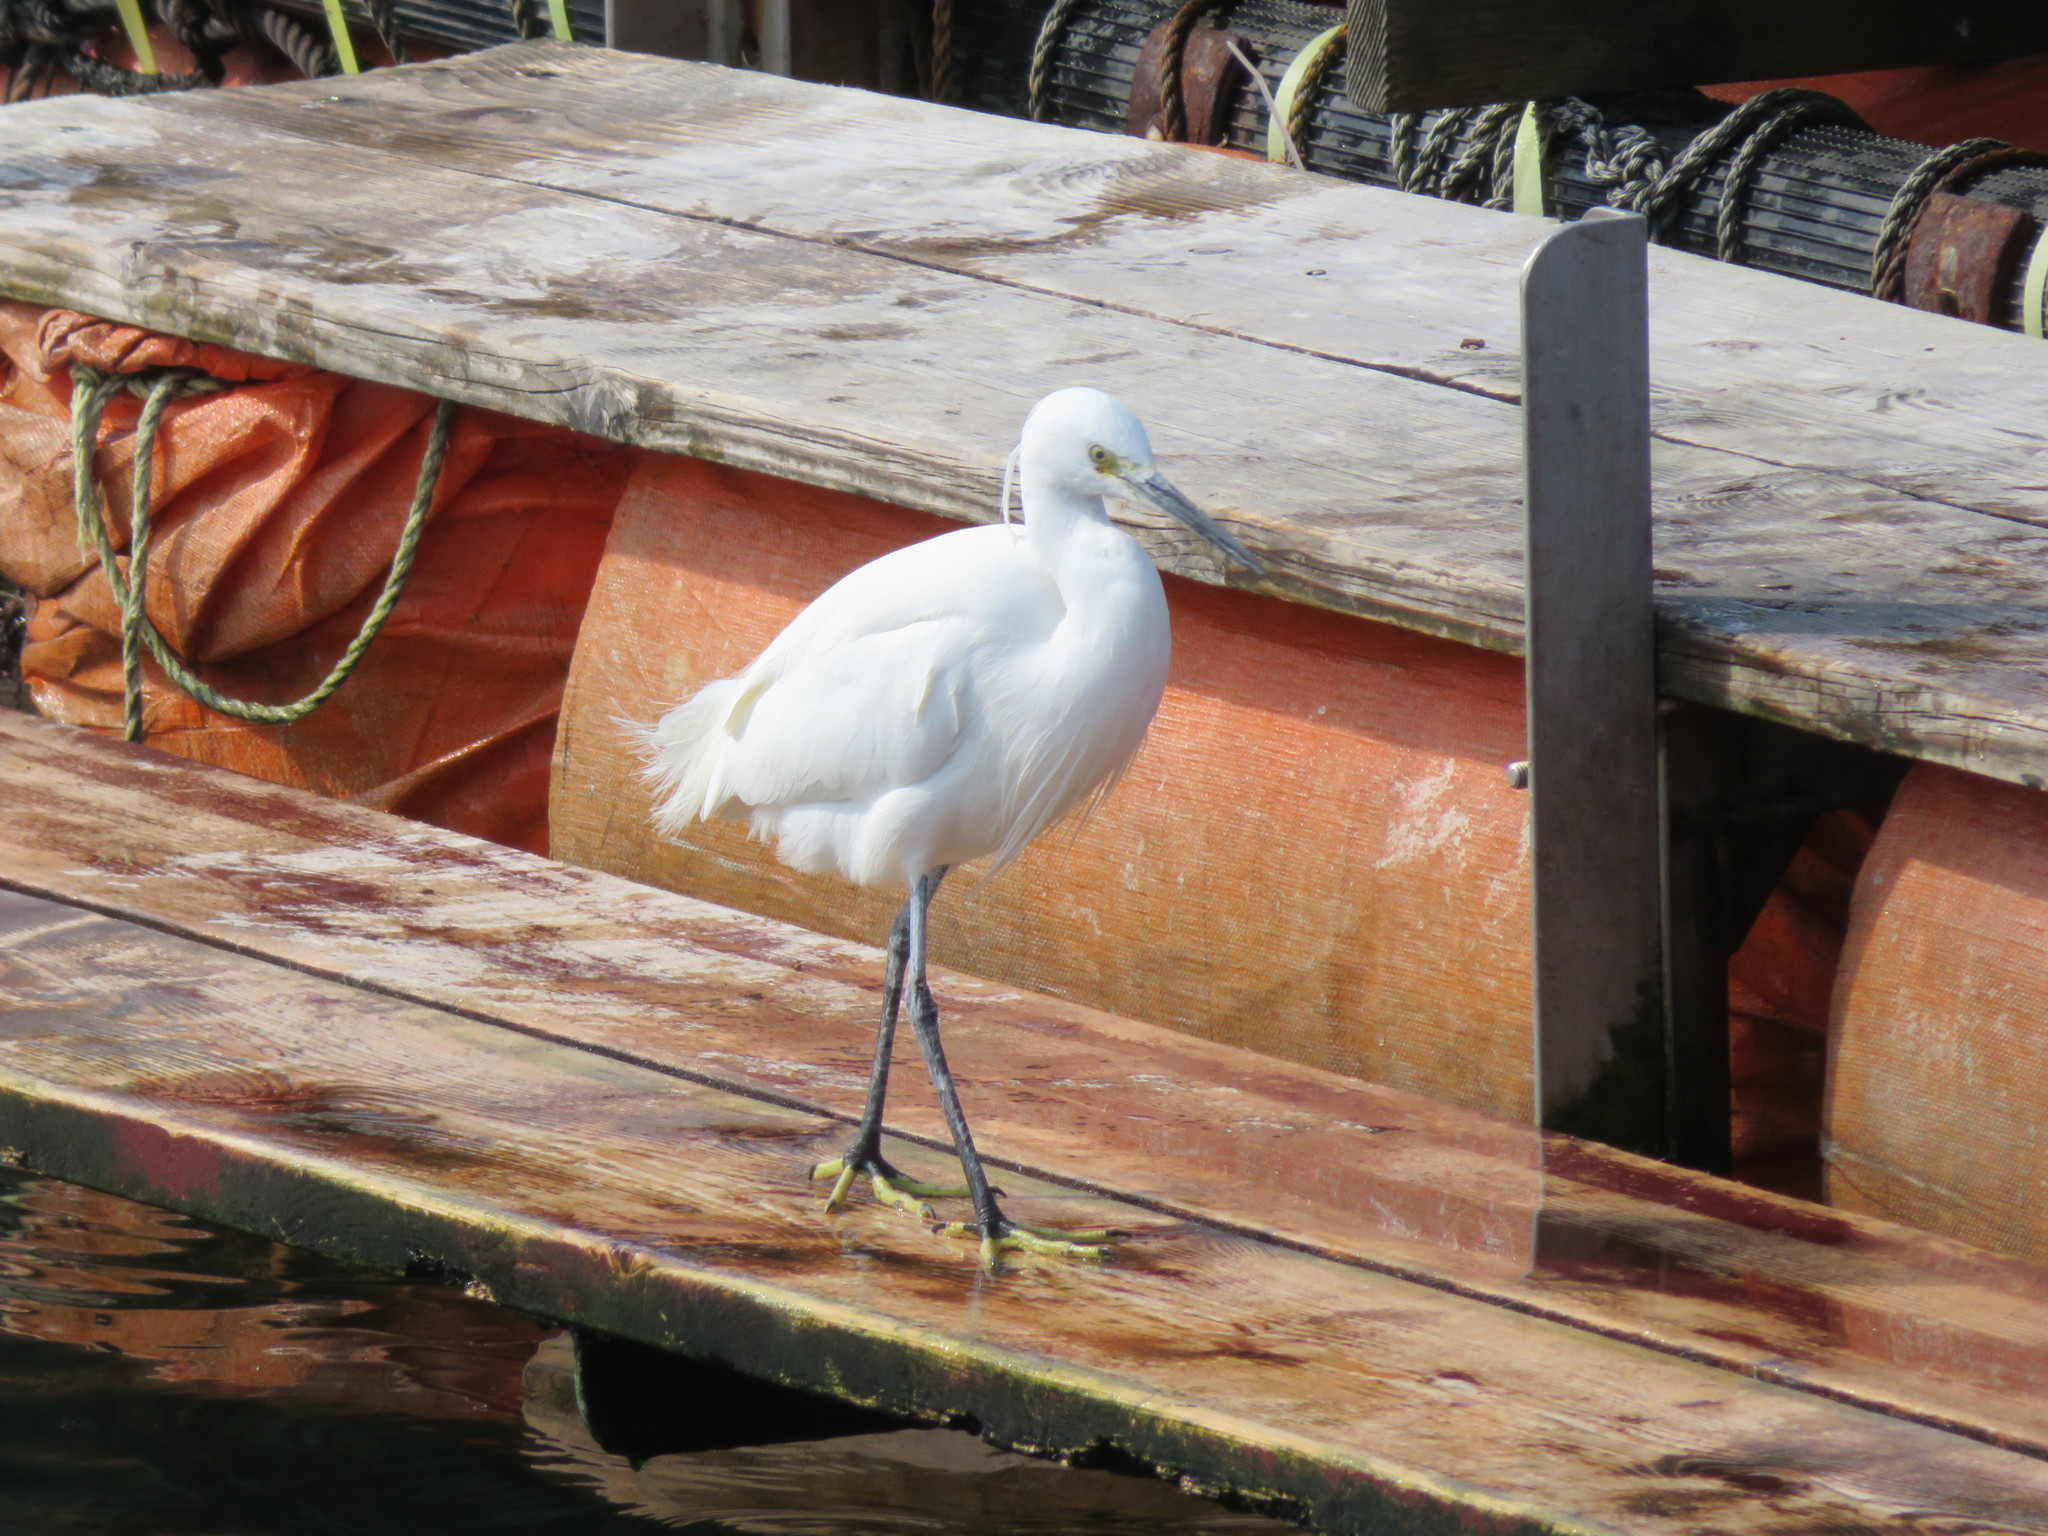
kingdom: Animalia
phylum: Chordata
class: Aves
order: Pelecaniformes
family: Ardeidae
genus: Egretta
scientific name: Egretta garzetta
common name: Little egret
